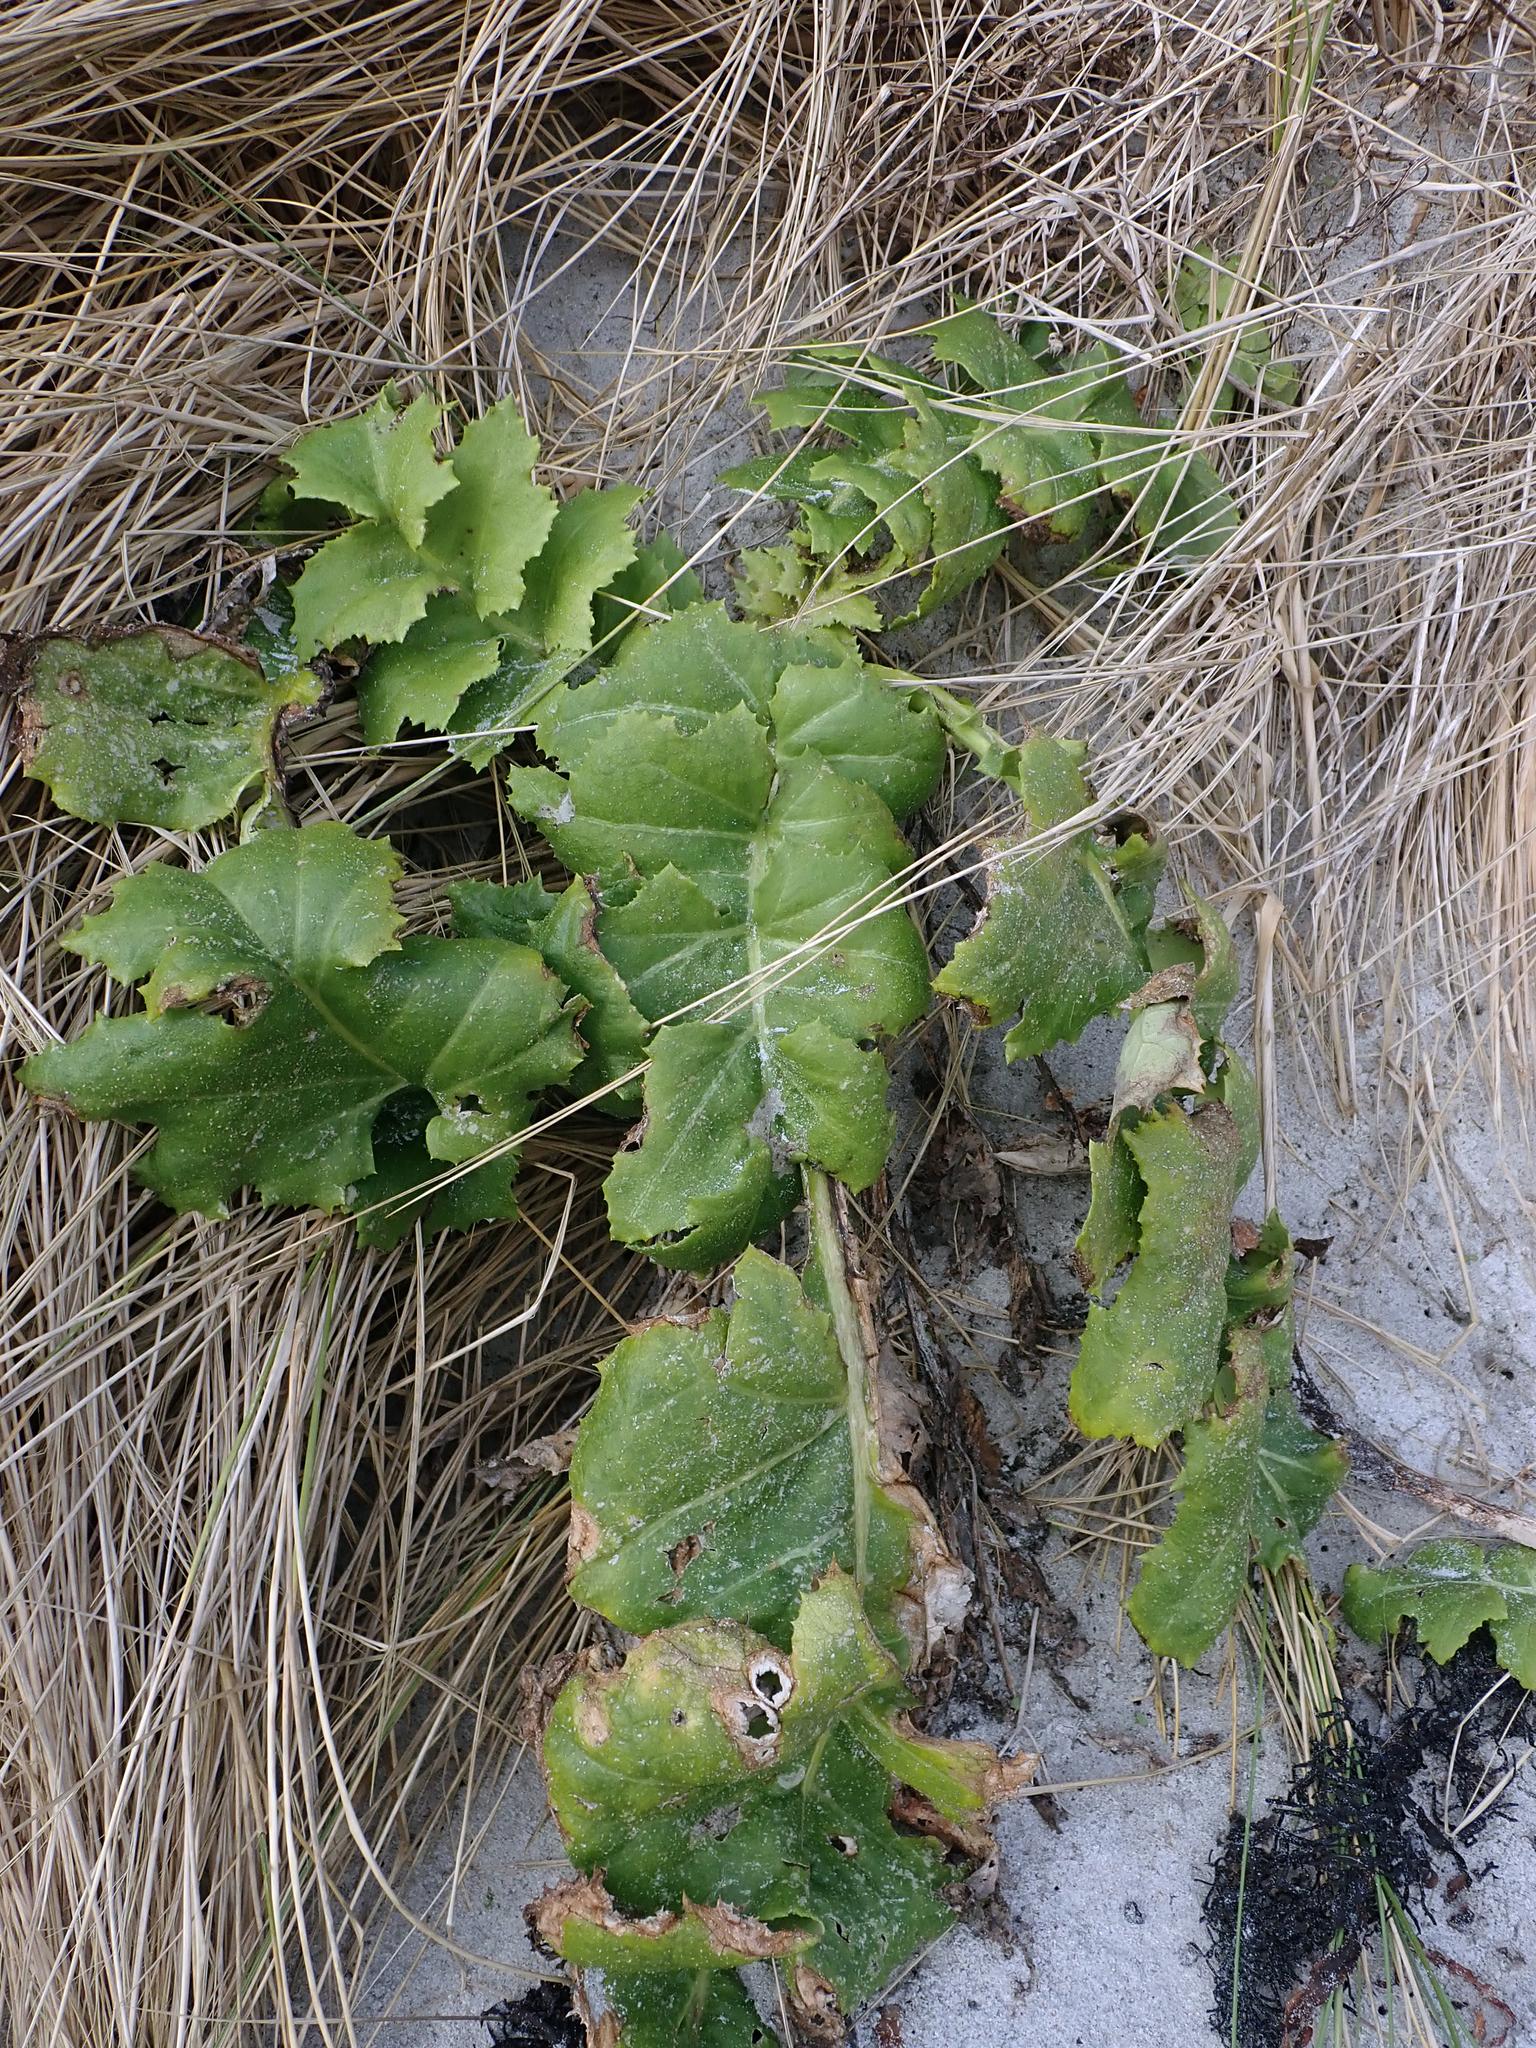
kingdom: Plantae
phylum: Tracheophyta
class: Magnoliopsida
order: Asterales
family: Asteraceae
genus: Sonchus
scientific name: Sonchus grandifolius
